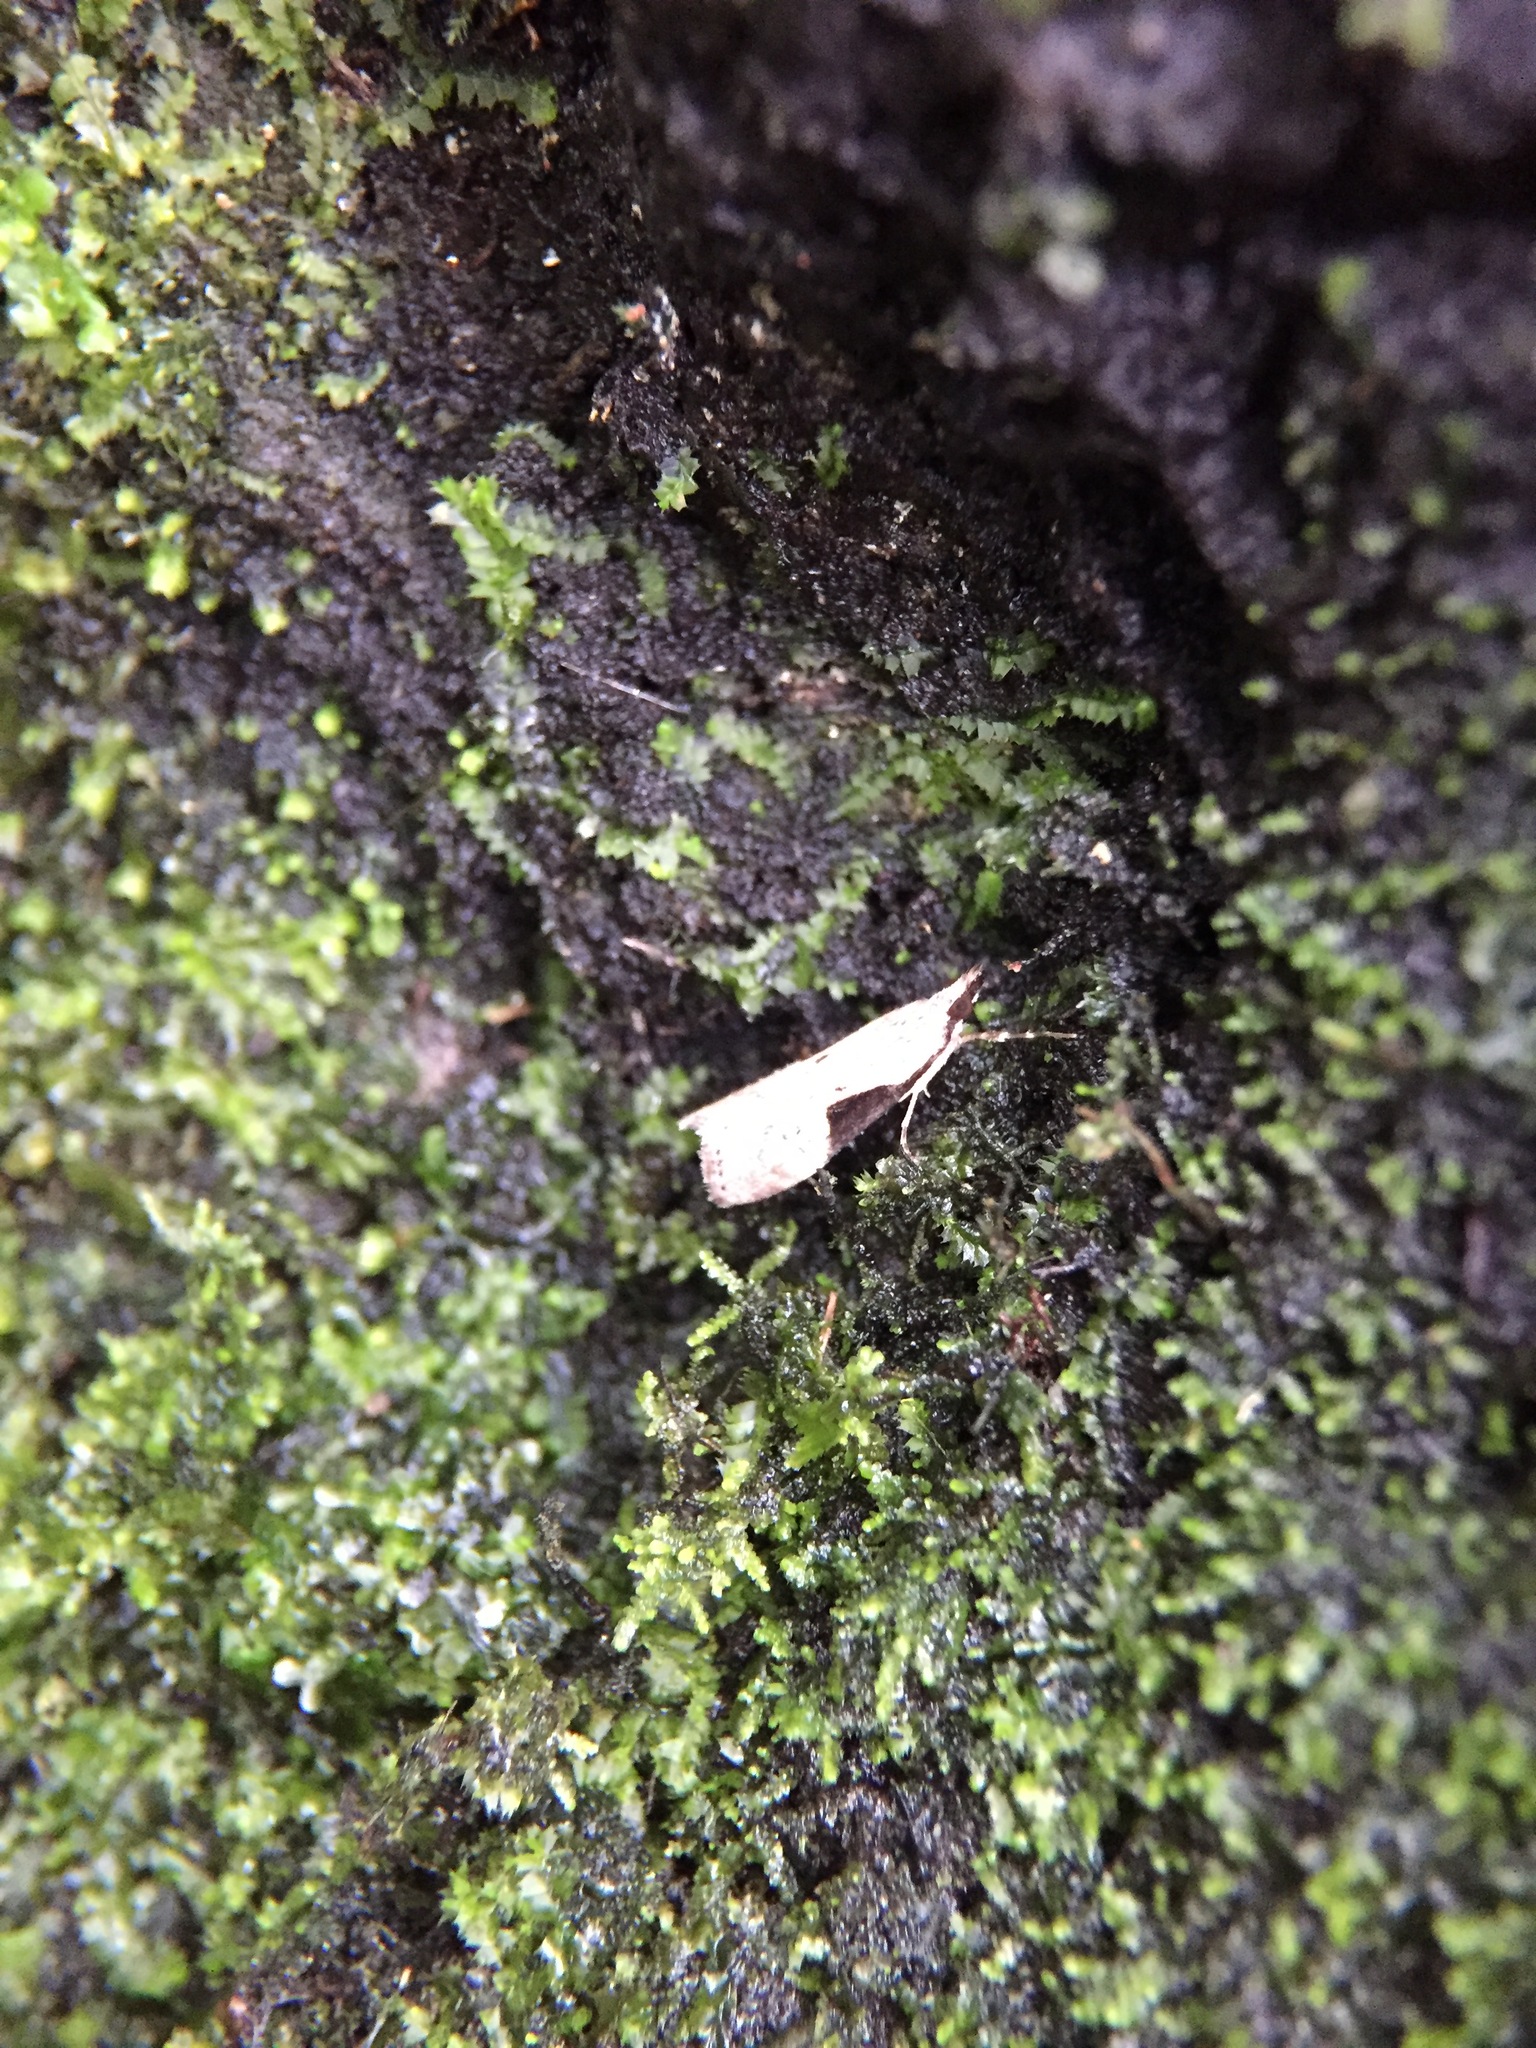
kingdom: Animalia
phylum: Arthropoda
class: Insecta
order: Lepidoptera
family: Crambidae
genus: Eudonia
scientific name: Eudonia pongalis
